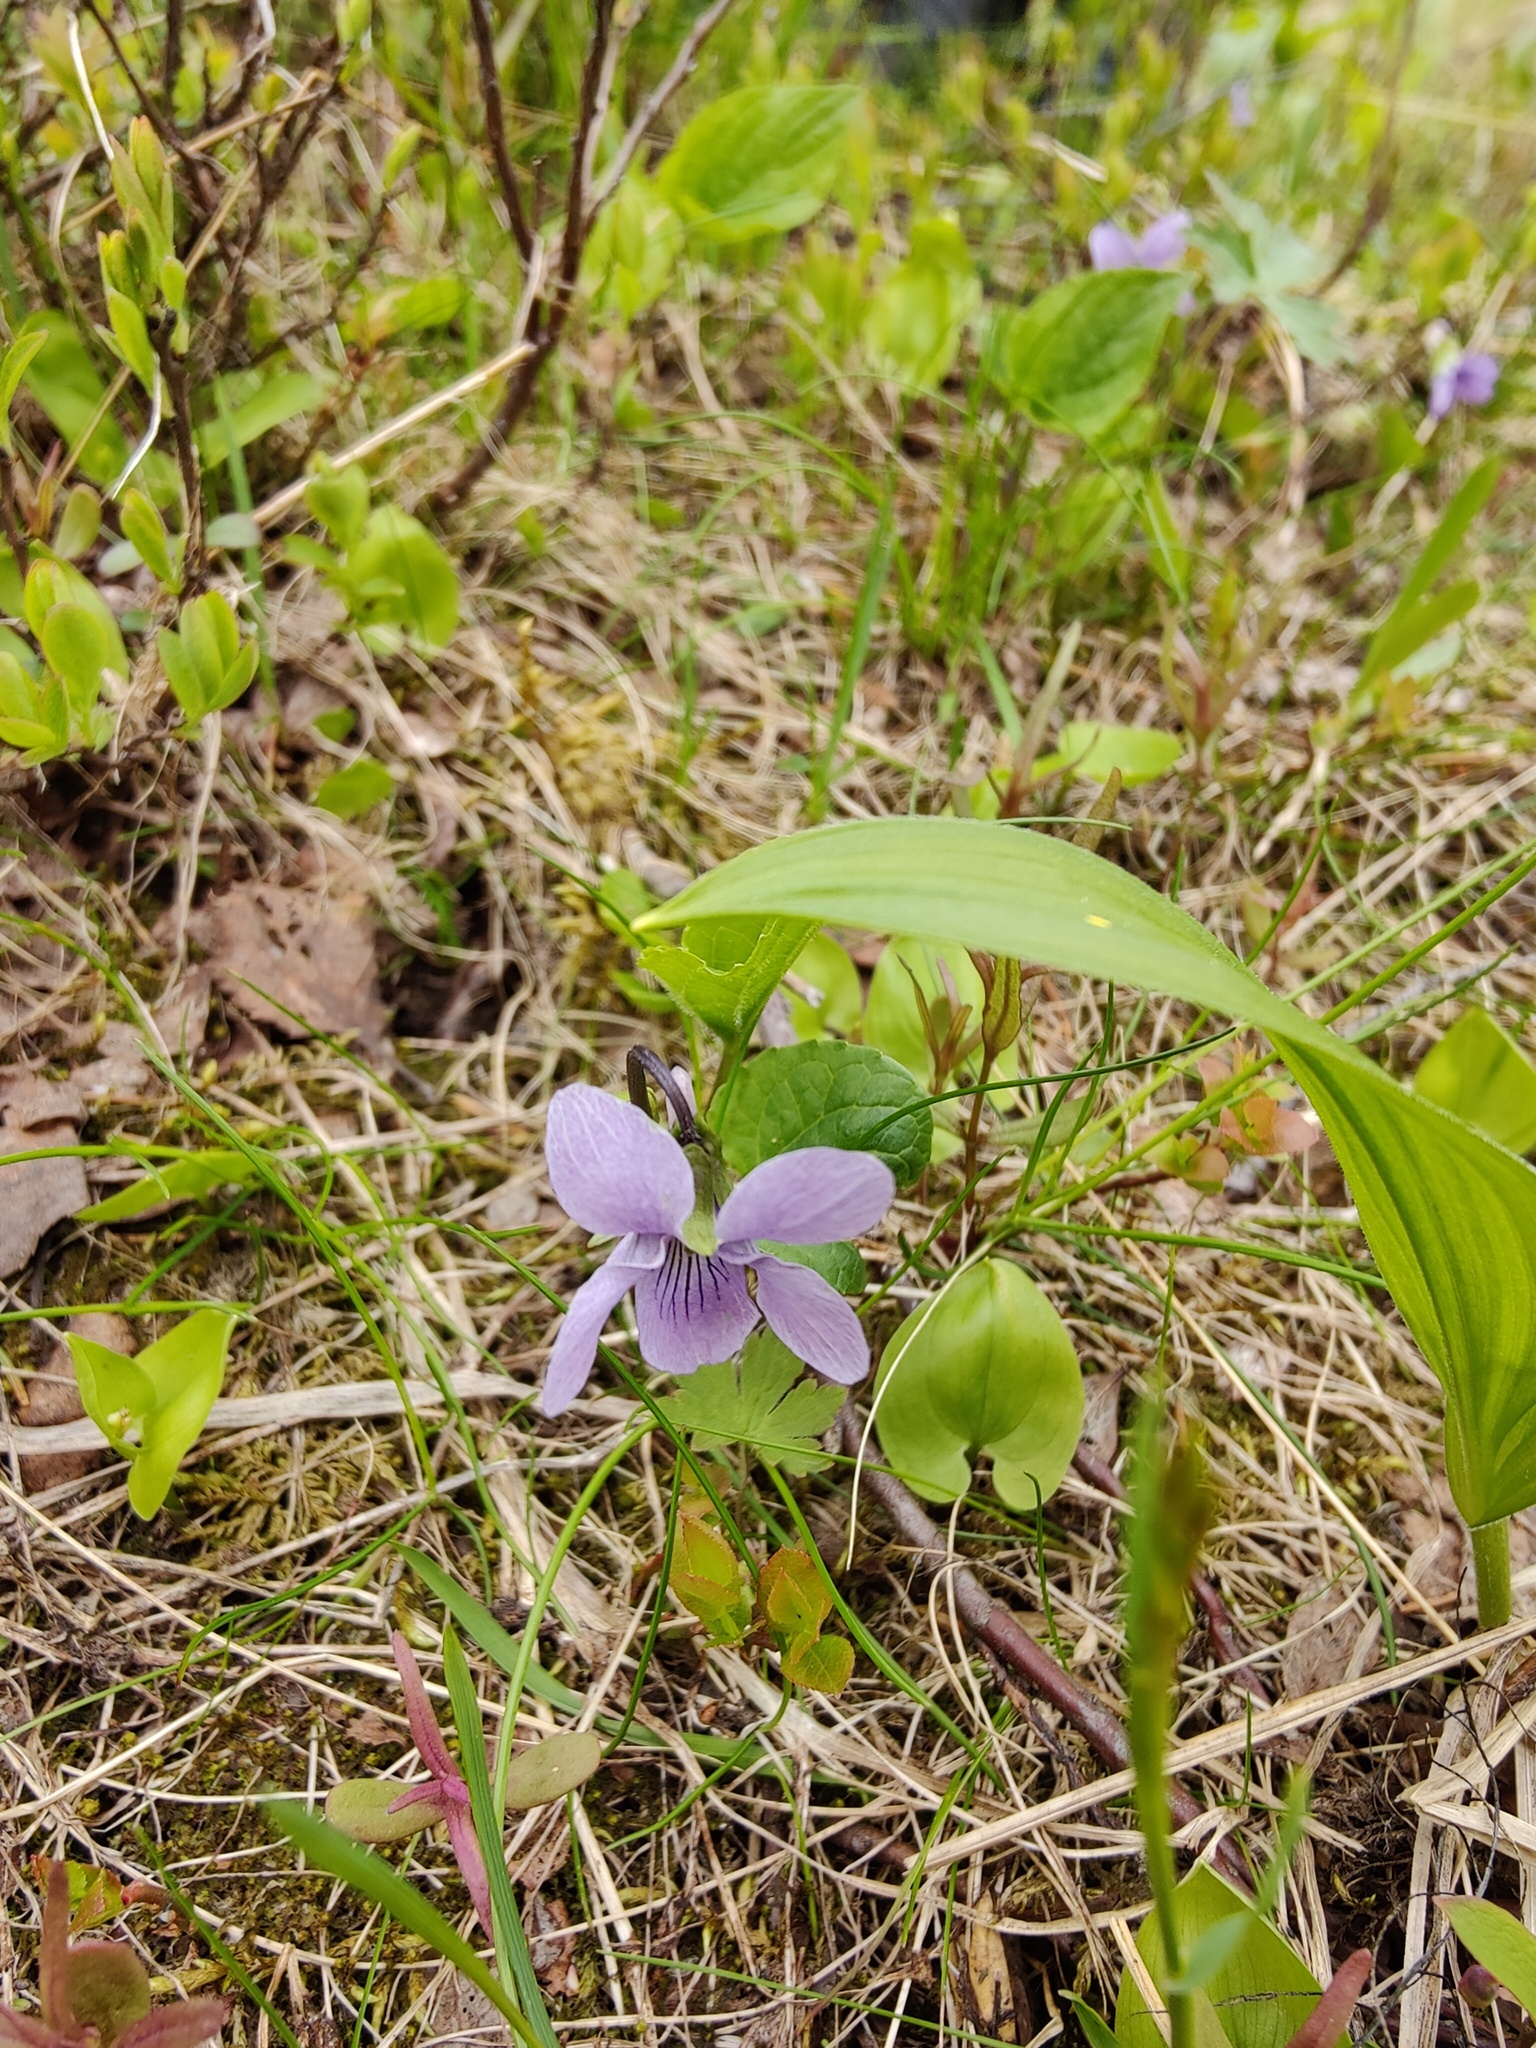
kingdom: Plantae
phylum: Tracheophyta
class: Magnoliopsida
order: Malpighiales
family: Violaceae
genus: Viola
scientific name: Viola epipsila
